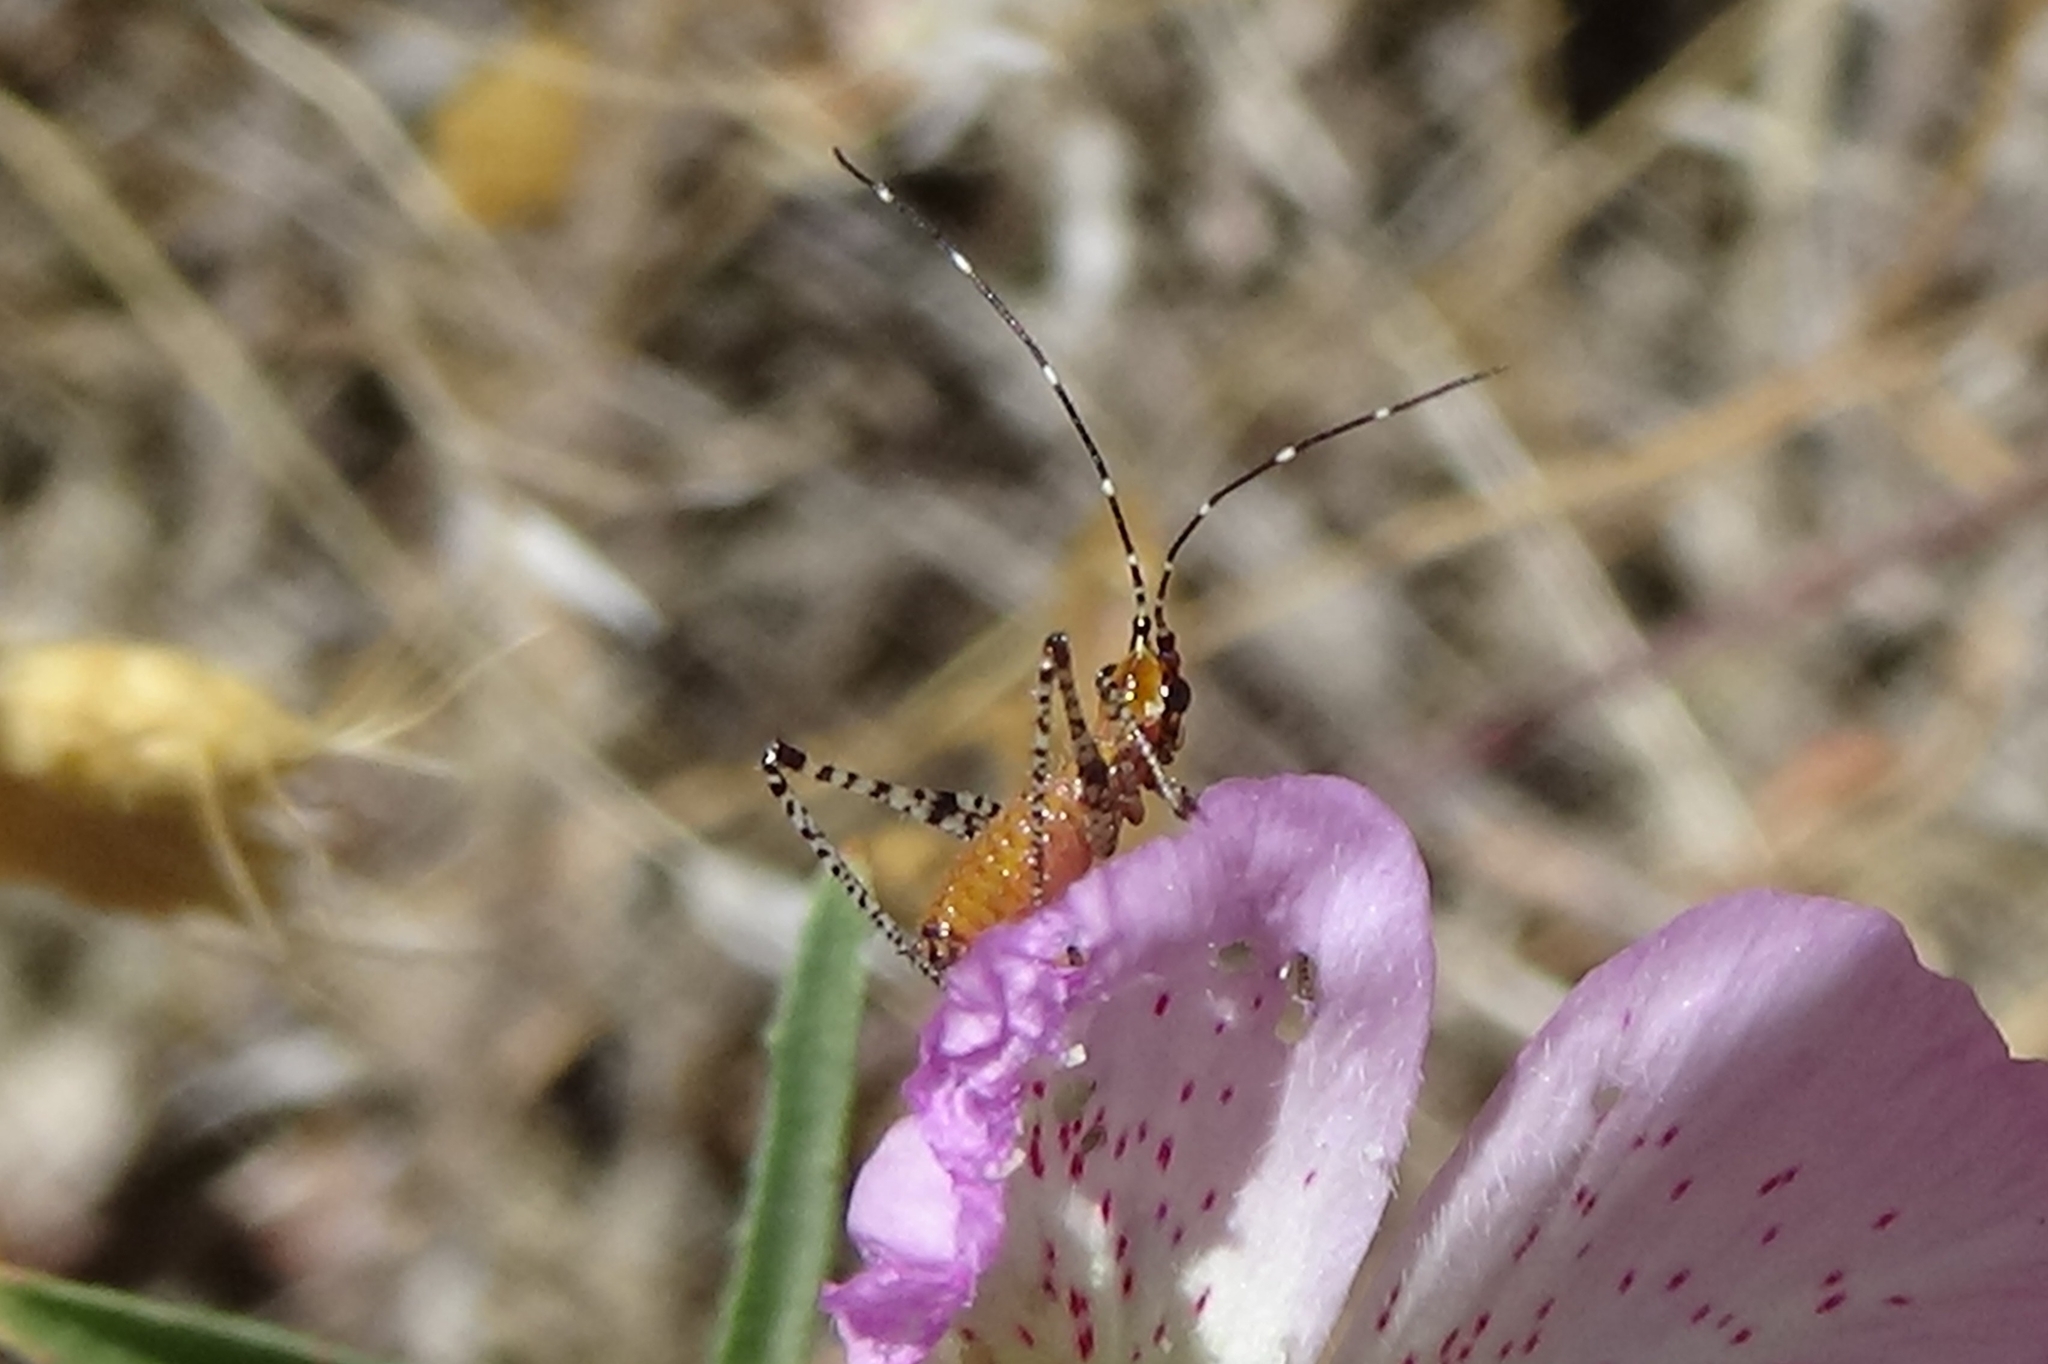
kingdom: Animalia
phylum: Arthropoda
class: Insecta
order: Orthoptera
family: Tettigoniidae
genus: Scudderia
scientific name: Scudderia
